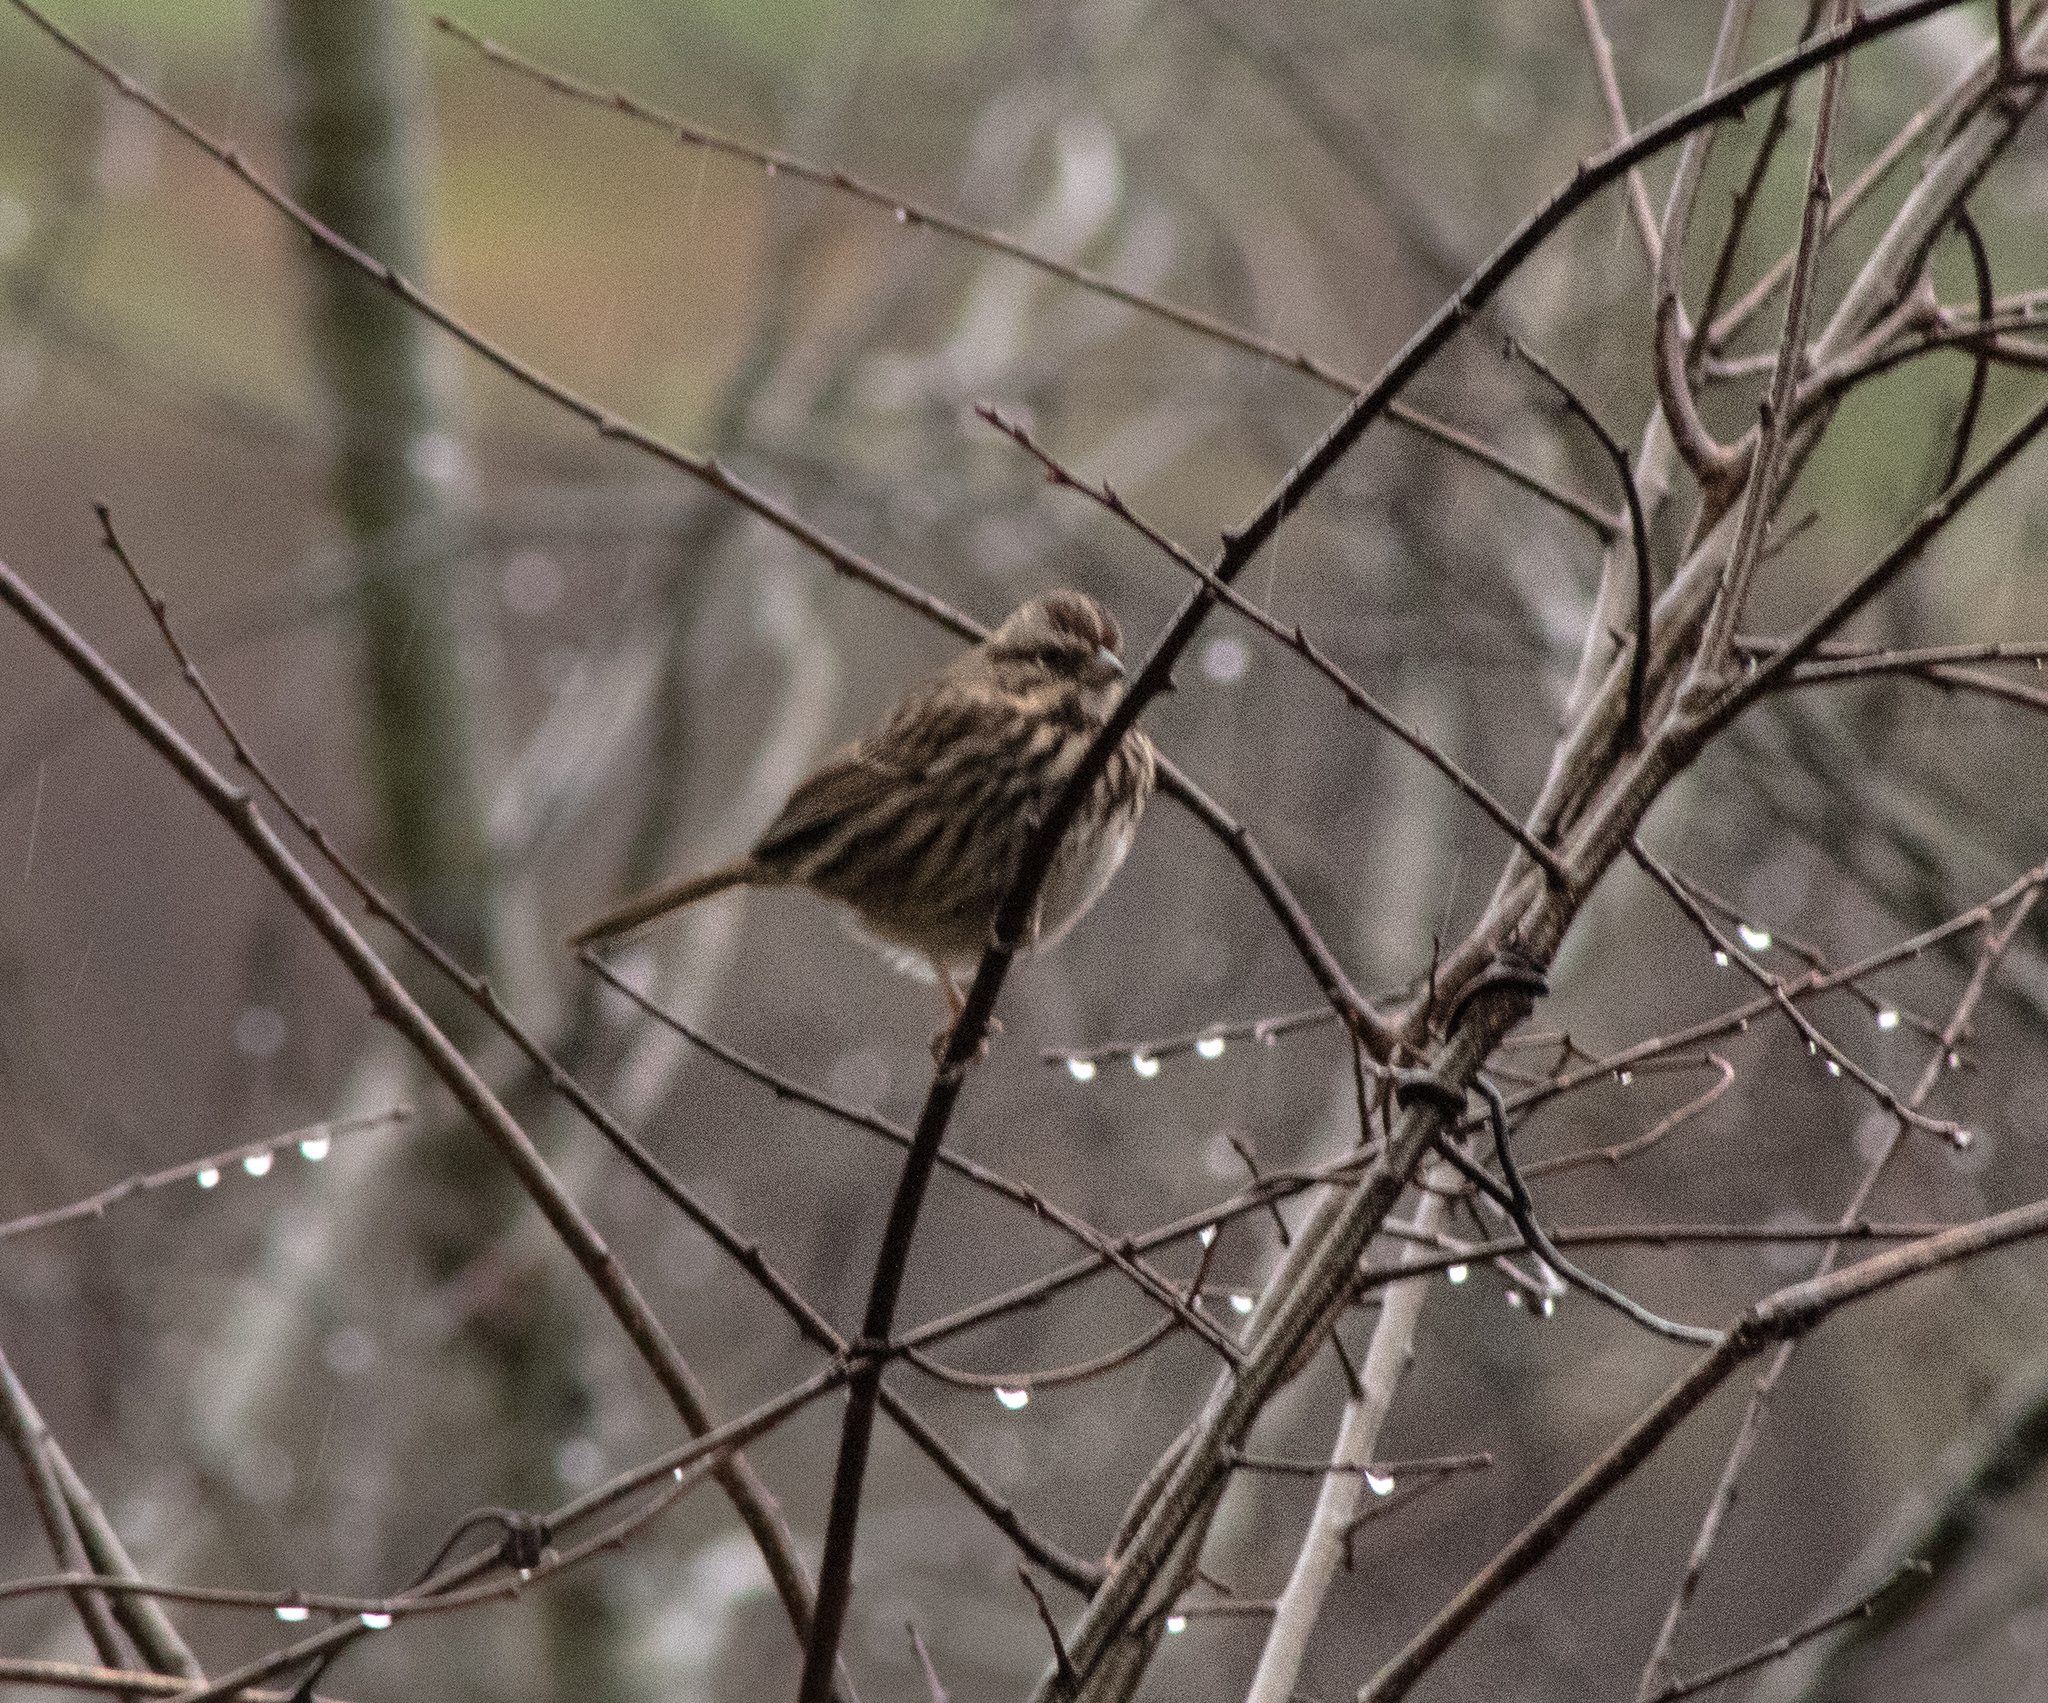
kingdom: Animalia
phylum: Chordata
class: Aves
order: Passeriformes
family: Passerellidae
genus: Melospiza
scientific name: Melospiza melodia
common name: Song sparrow
